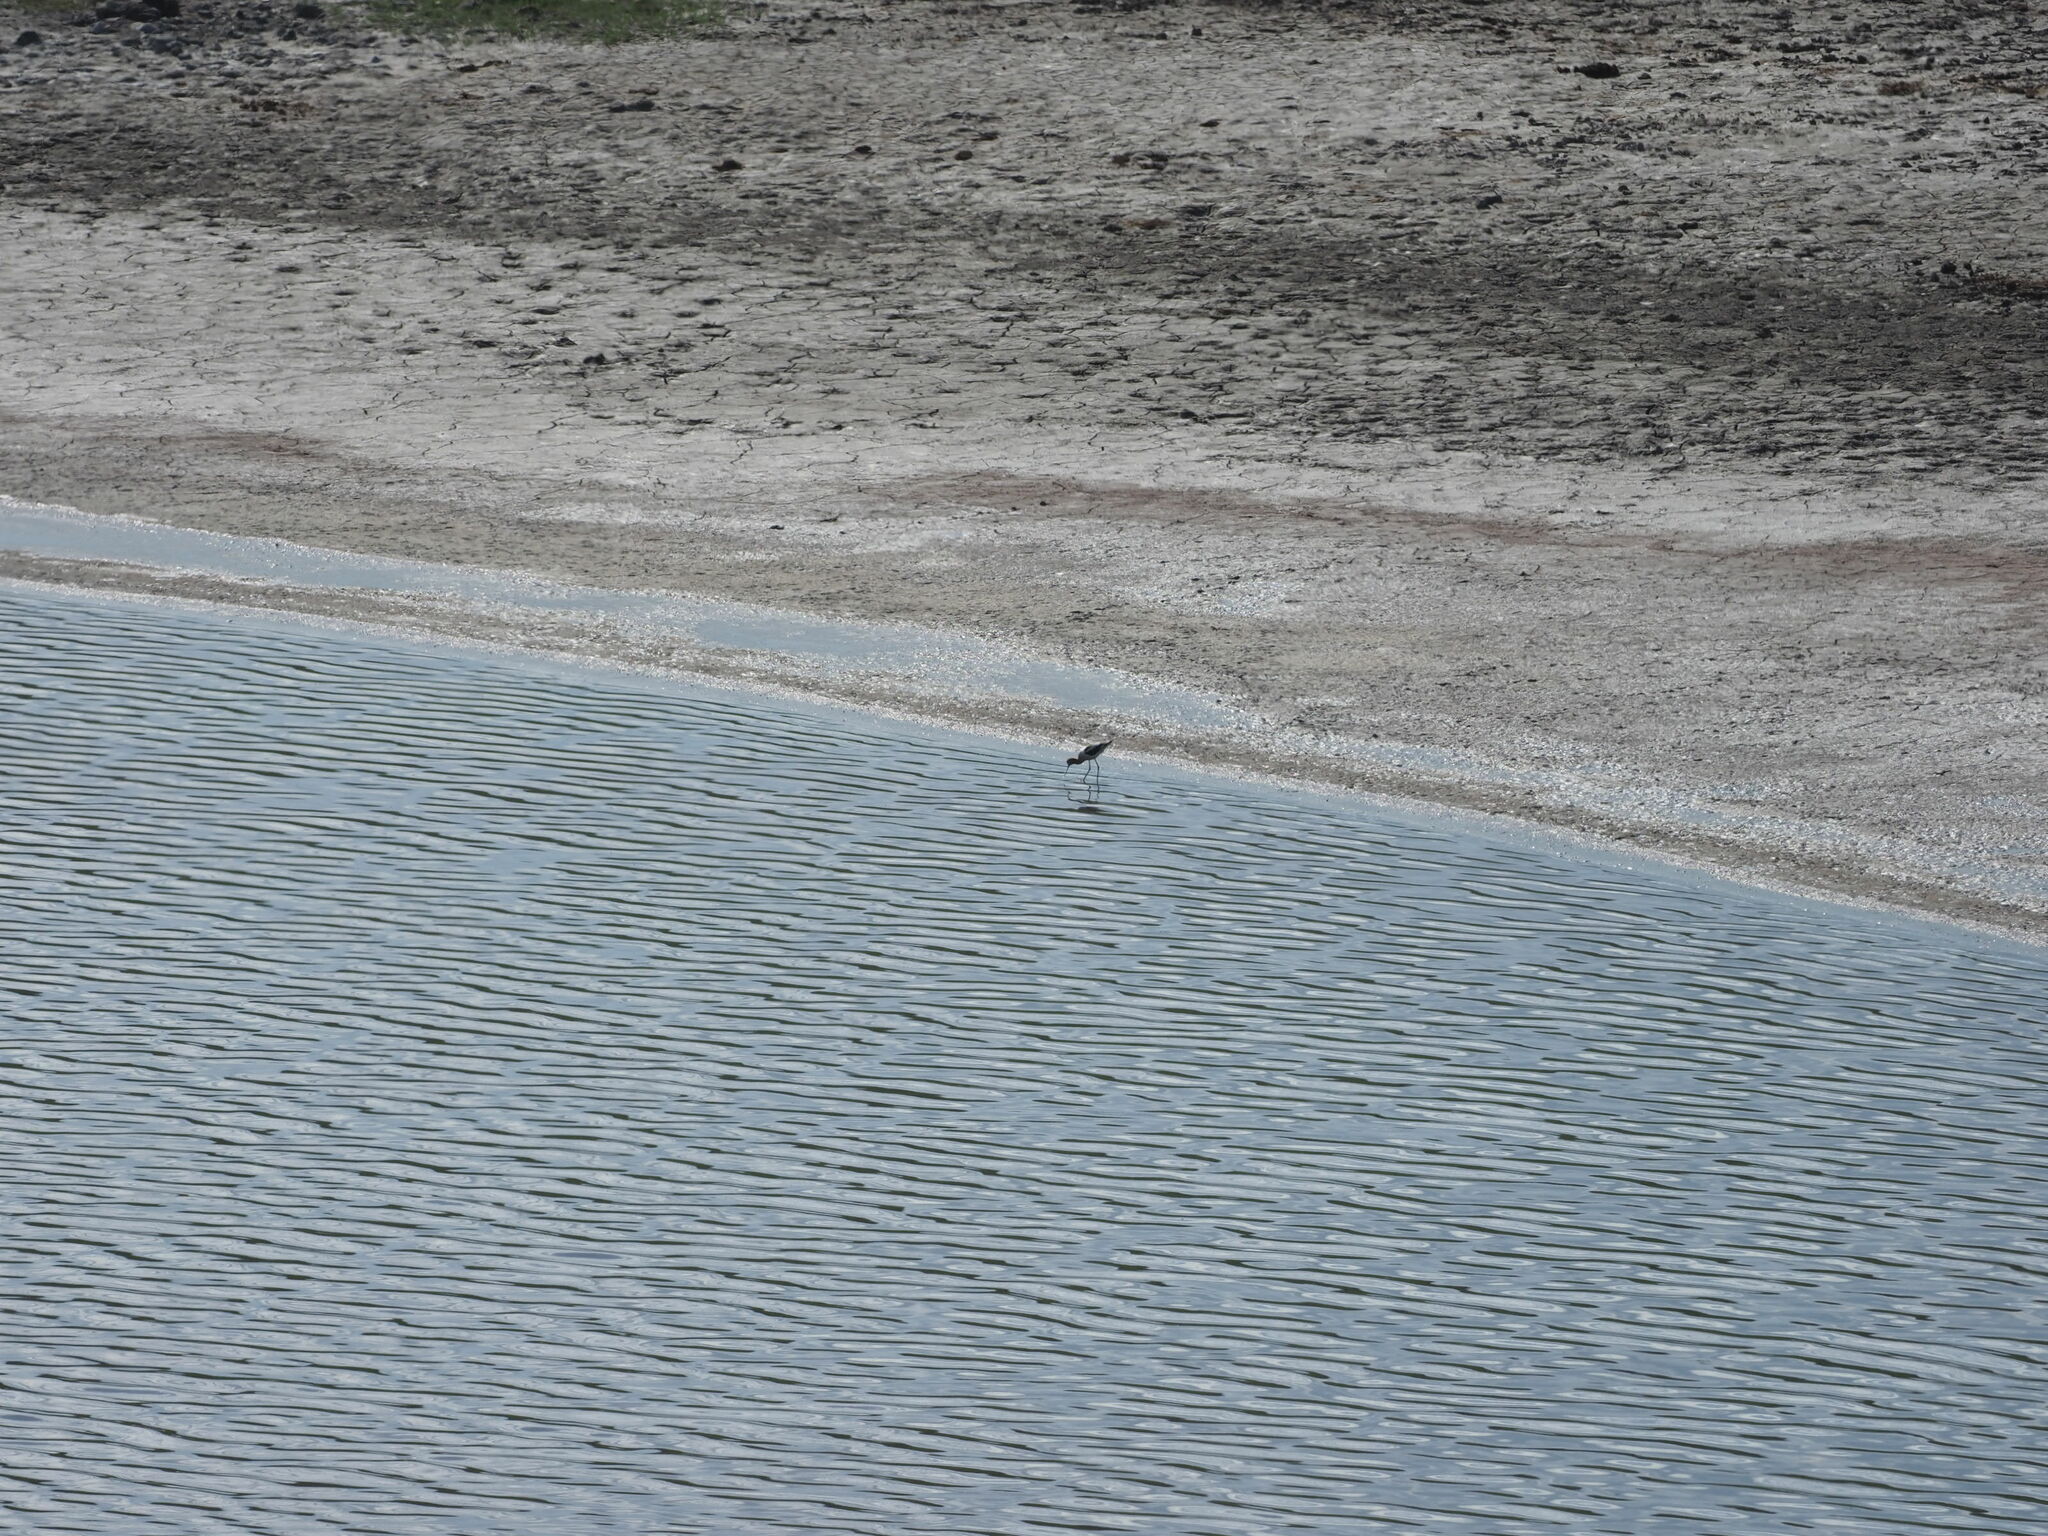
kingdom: Animalia
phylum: Chordata
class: Aves
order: Charadriiformes
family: Recurvirostridae
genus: Recurvirostra
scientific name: Recurvirostra americana
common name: American avocet
